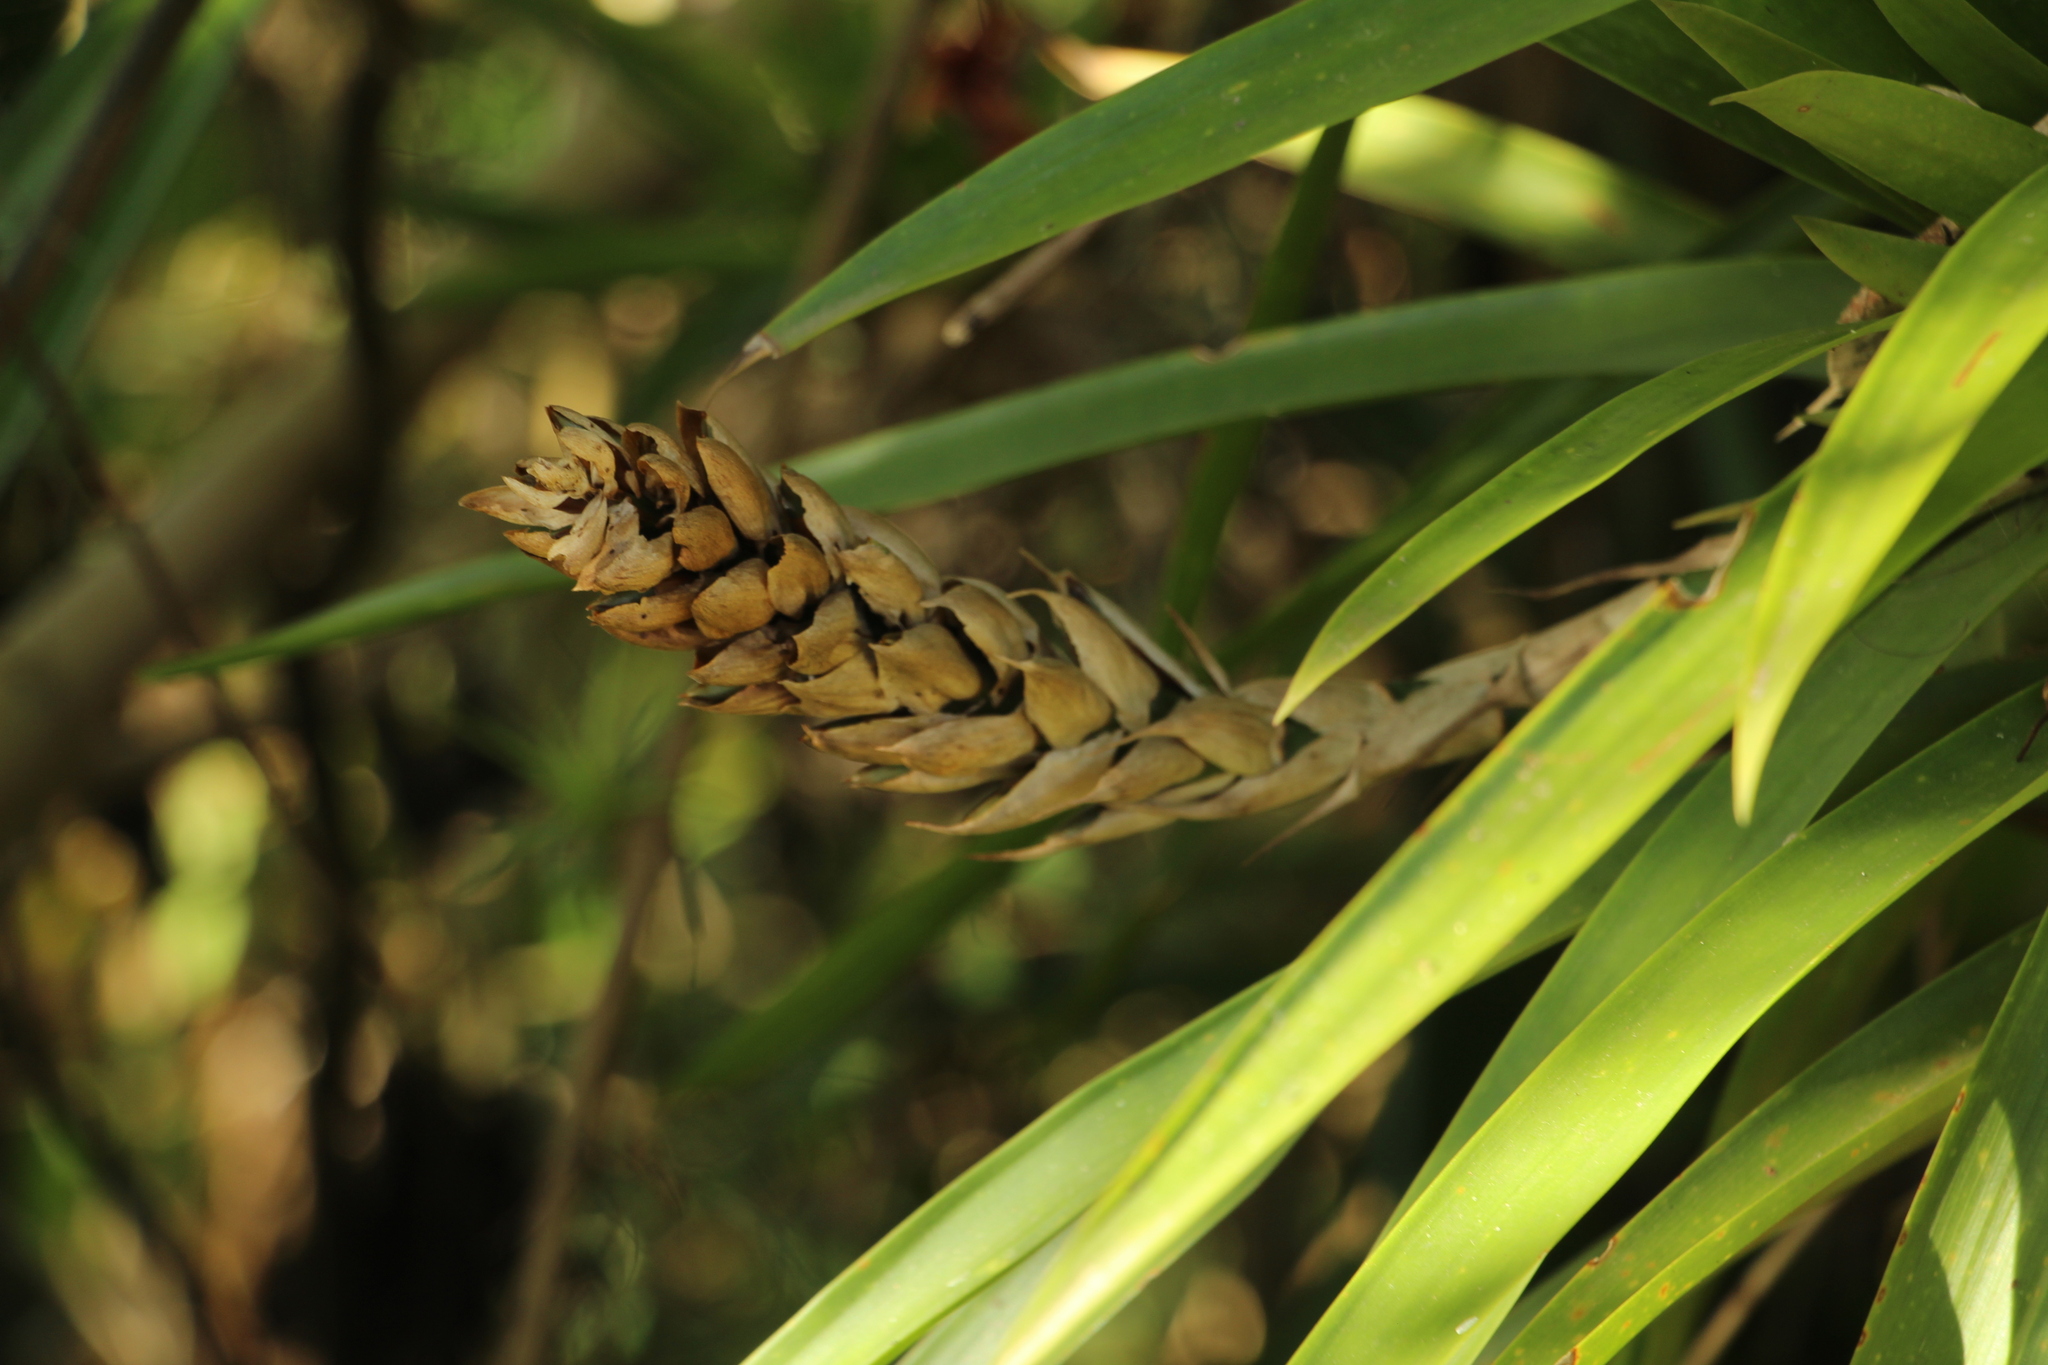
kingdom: Plantae
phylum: Tracheophyta
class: Liliopsida
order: Poales
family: Bromeliaceae
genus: Guzmania
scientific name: Guzmania monostachia
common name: West indian tufted airplant
